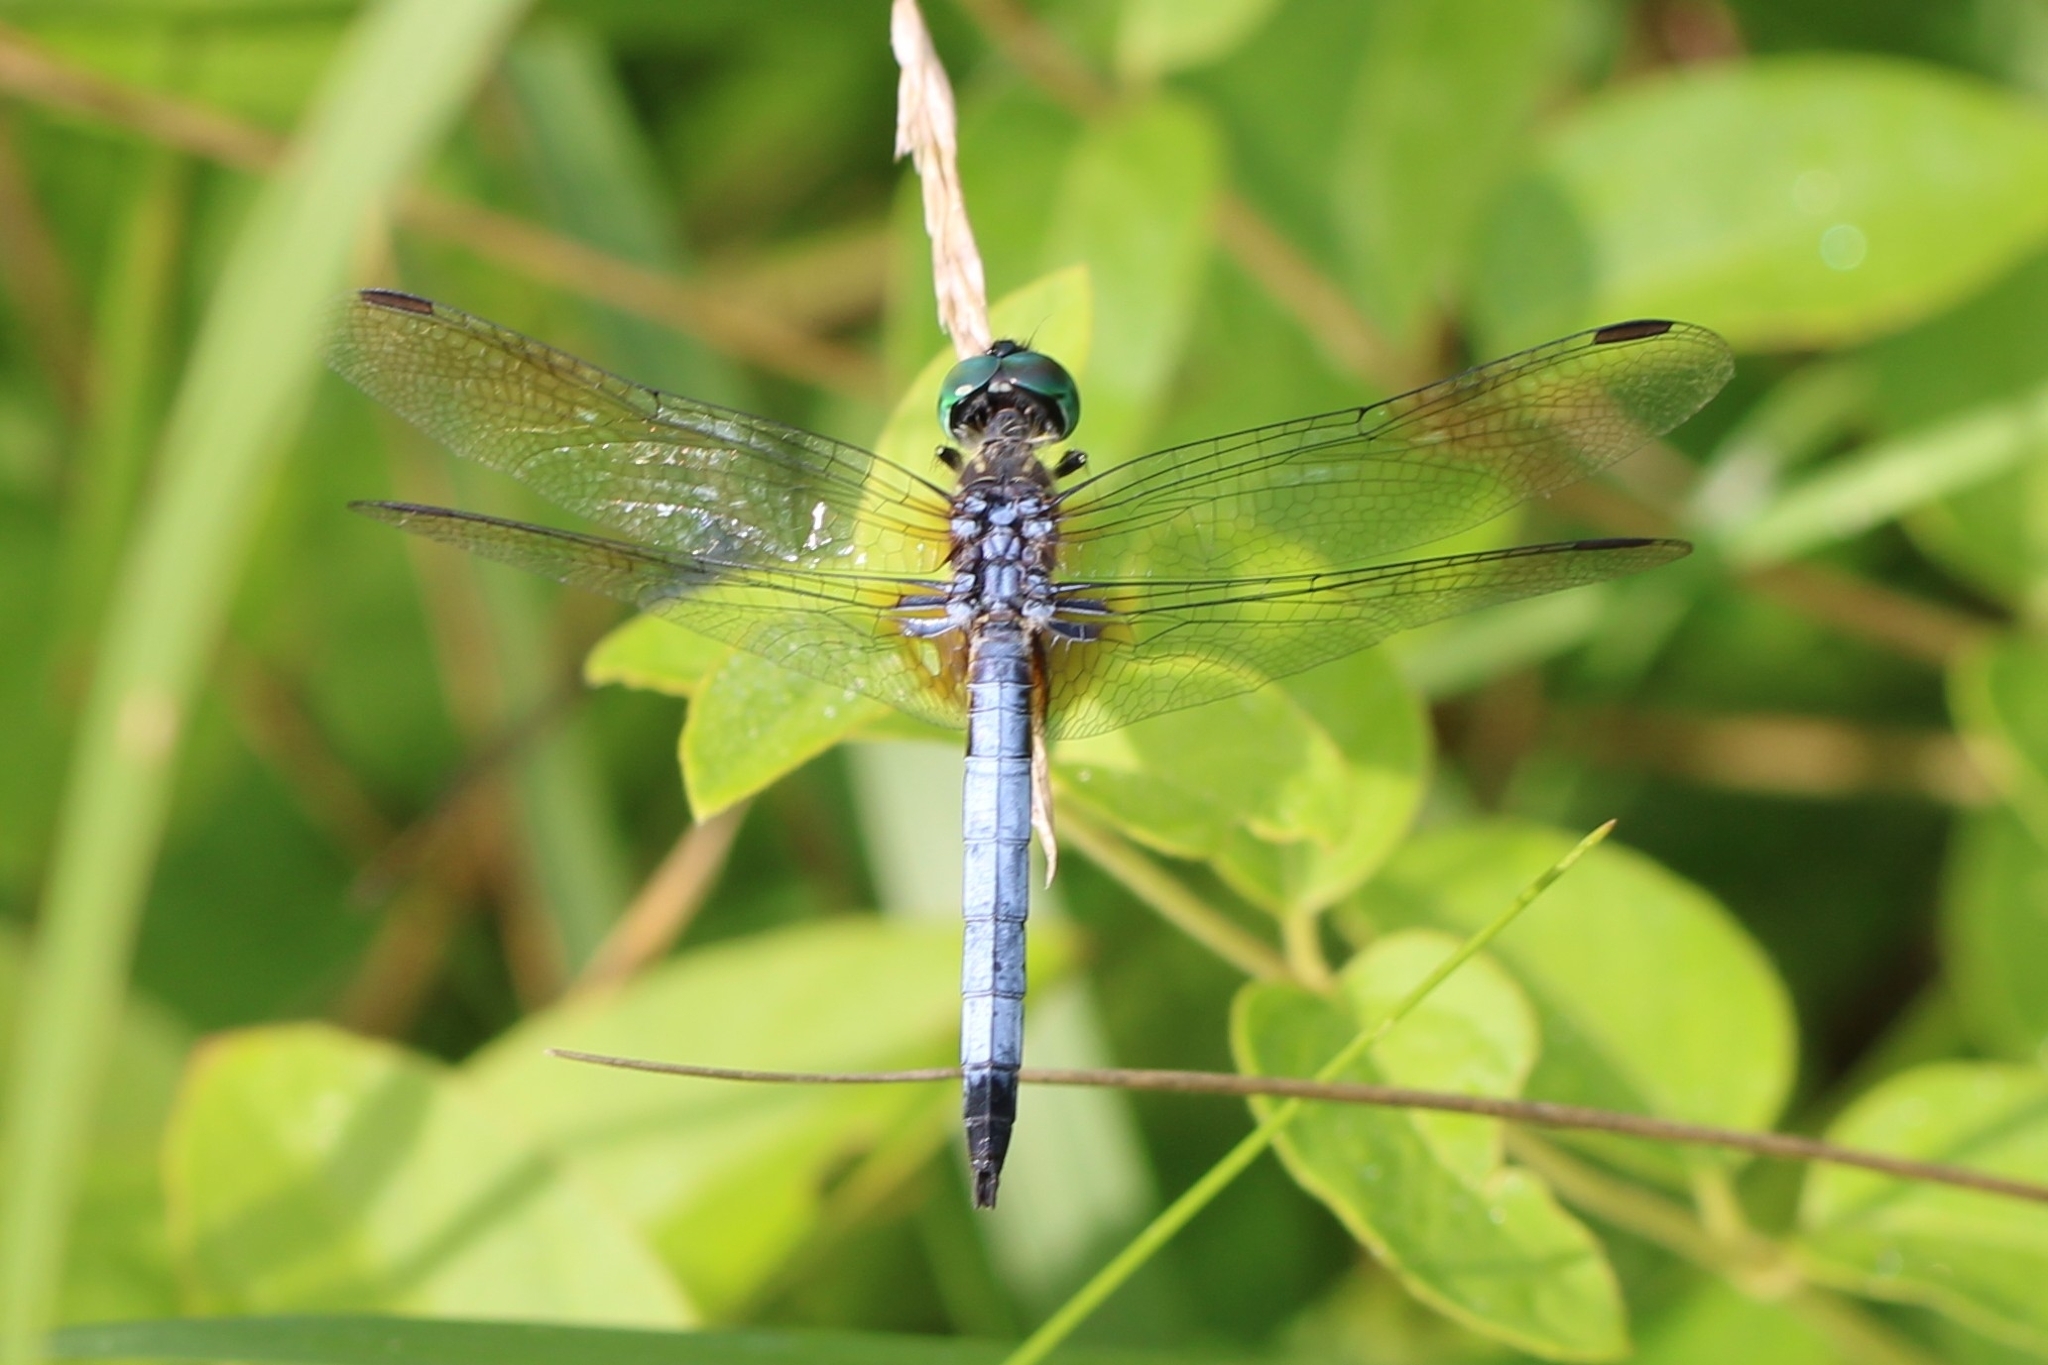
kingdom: Animalia
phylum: Arthropoda
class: Insecta
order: Odonata
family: Libellulidae
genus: Pachydiplax
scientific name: Pachydiplax longipennis
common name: Blue dasher
